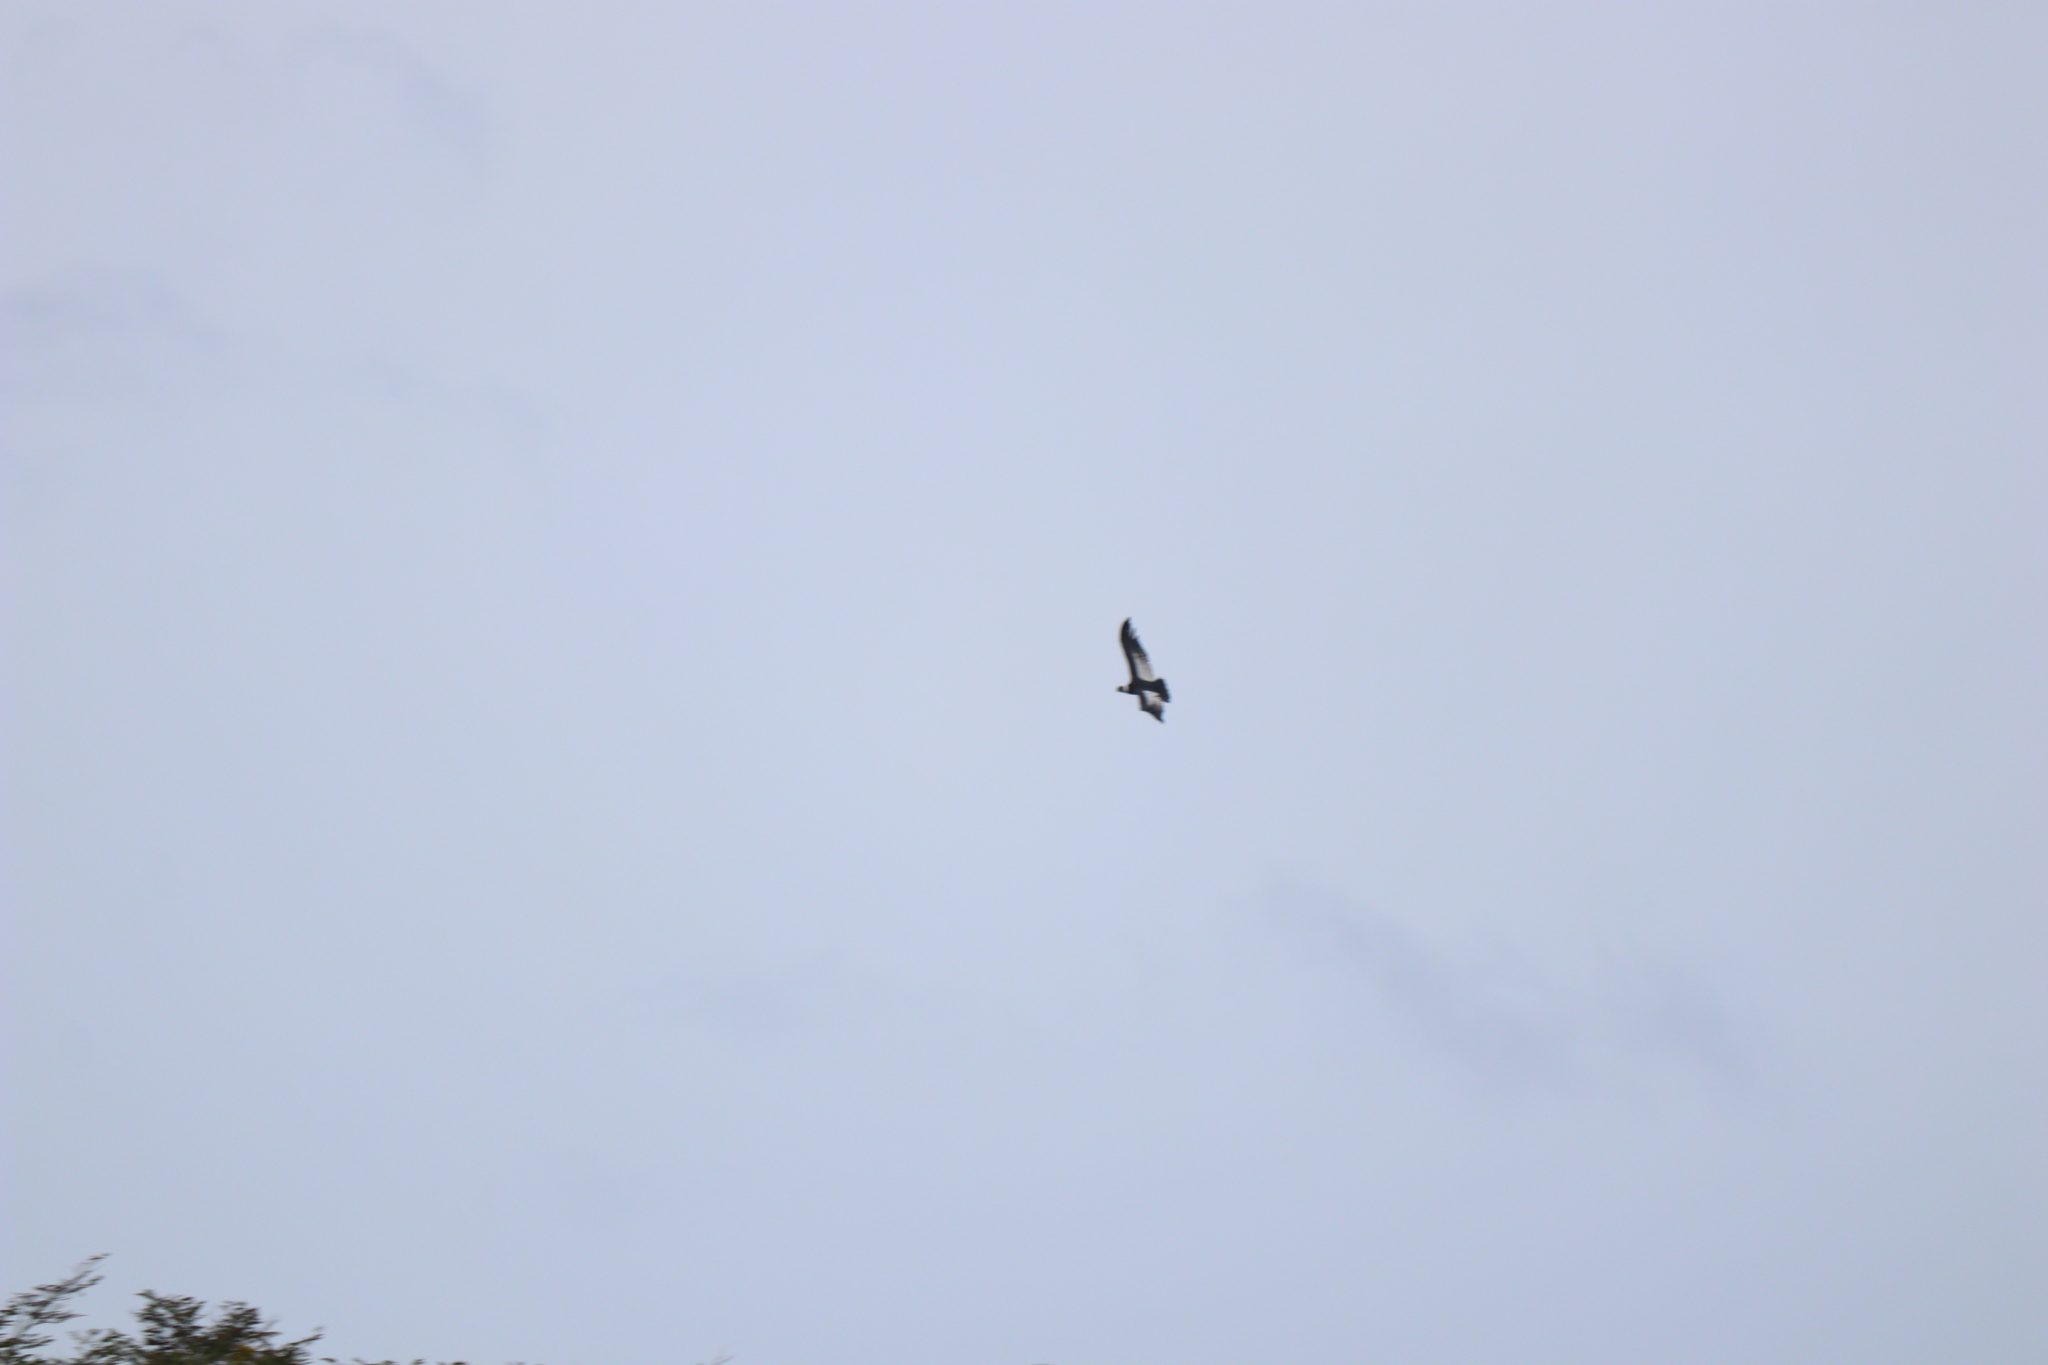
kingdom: Animalia
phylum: Chordata
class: Aves
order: Accipitriformes
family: Cathartidae
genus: Vultur
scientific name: Vultur gryphus
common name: Andean condor
